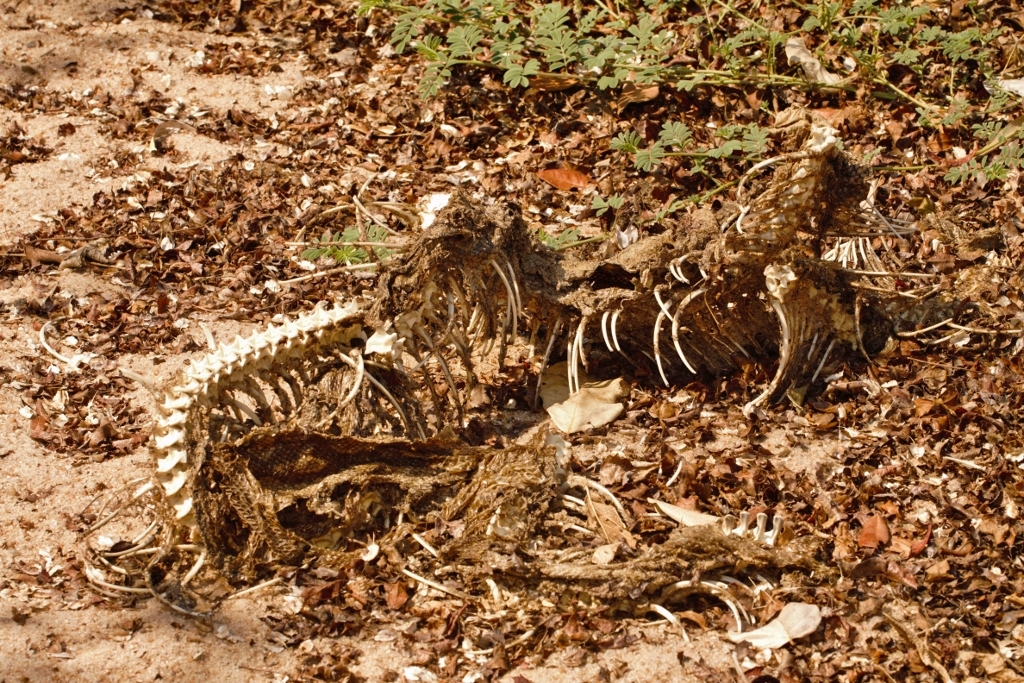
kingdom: Animalia
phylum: Chordata
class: Squamata
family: Pythonidae
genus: Python
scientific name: Python natalensis
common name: Southern african rock python
